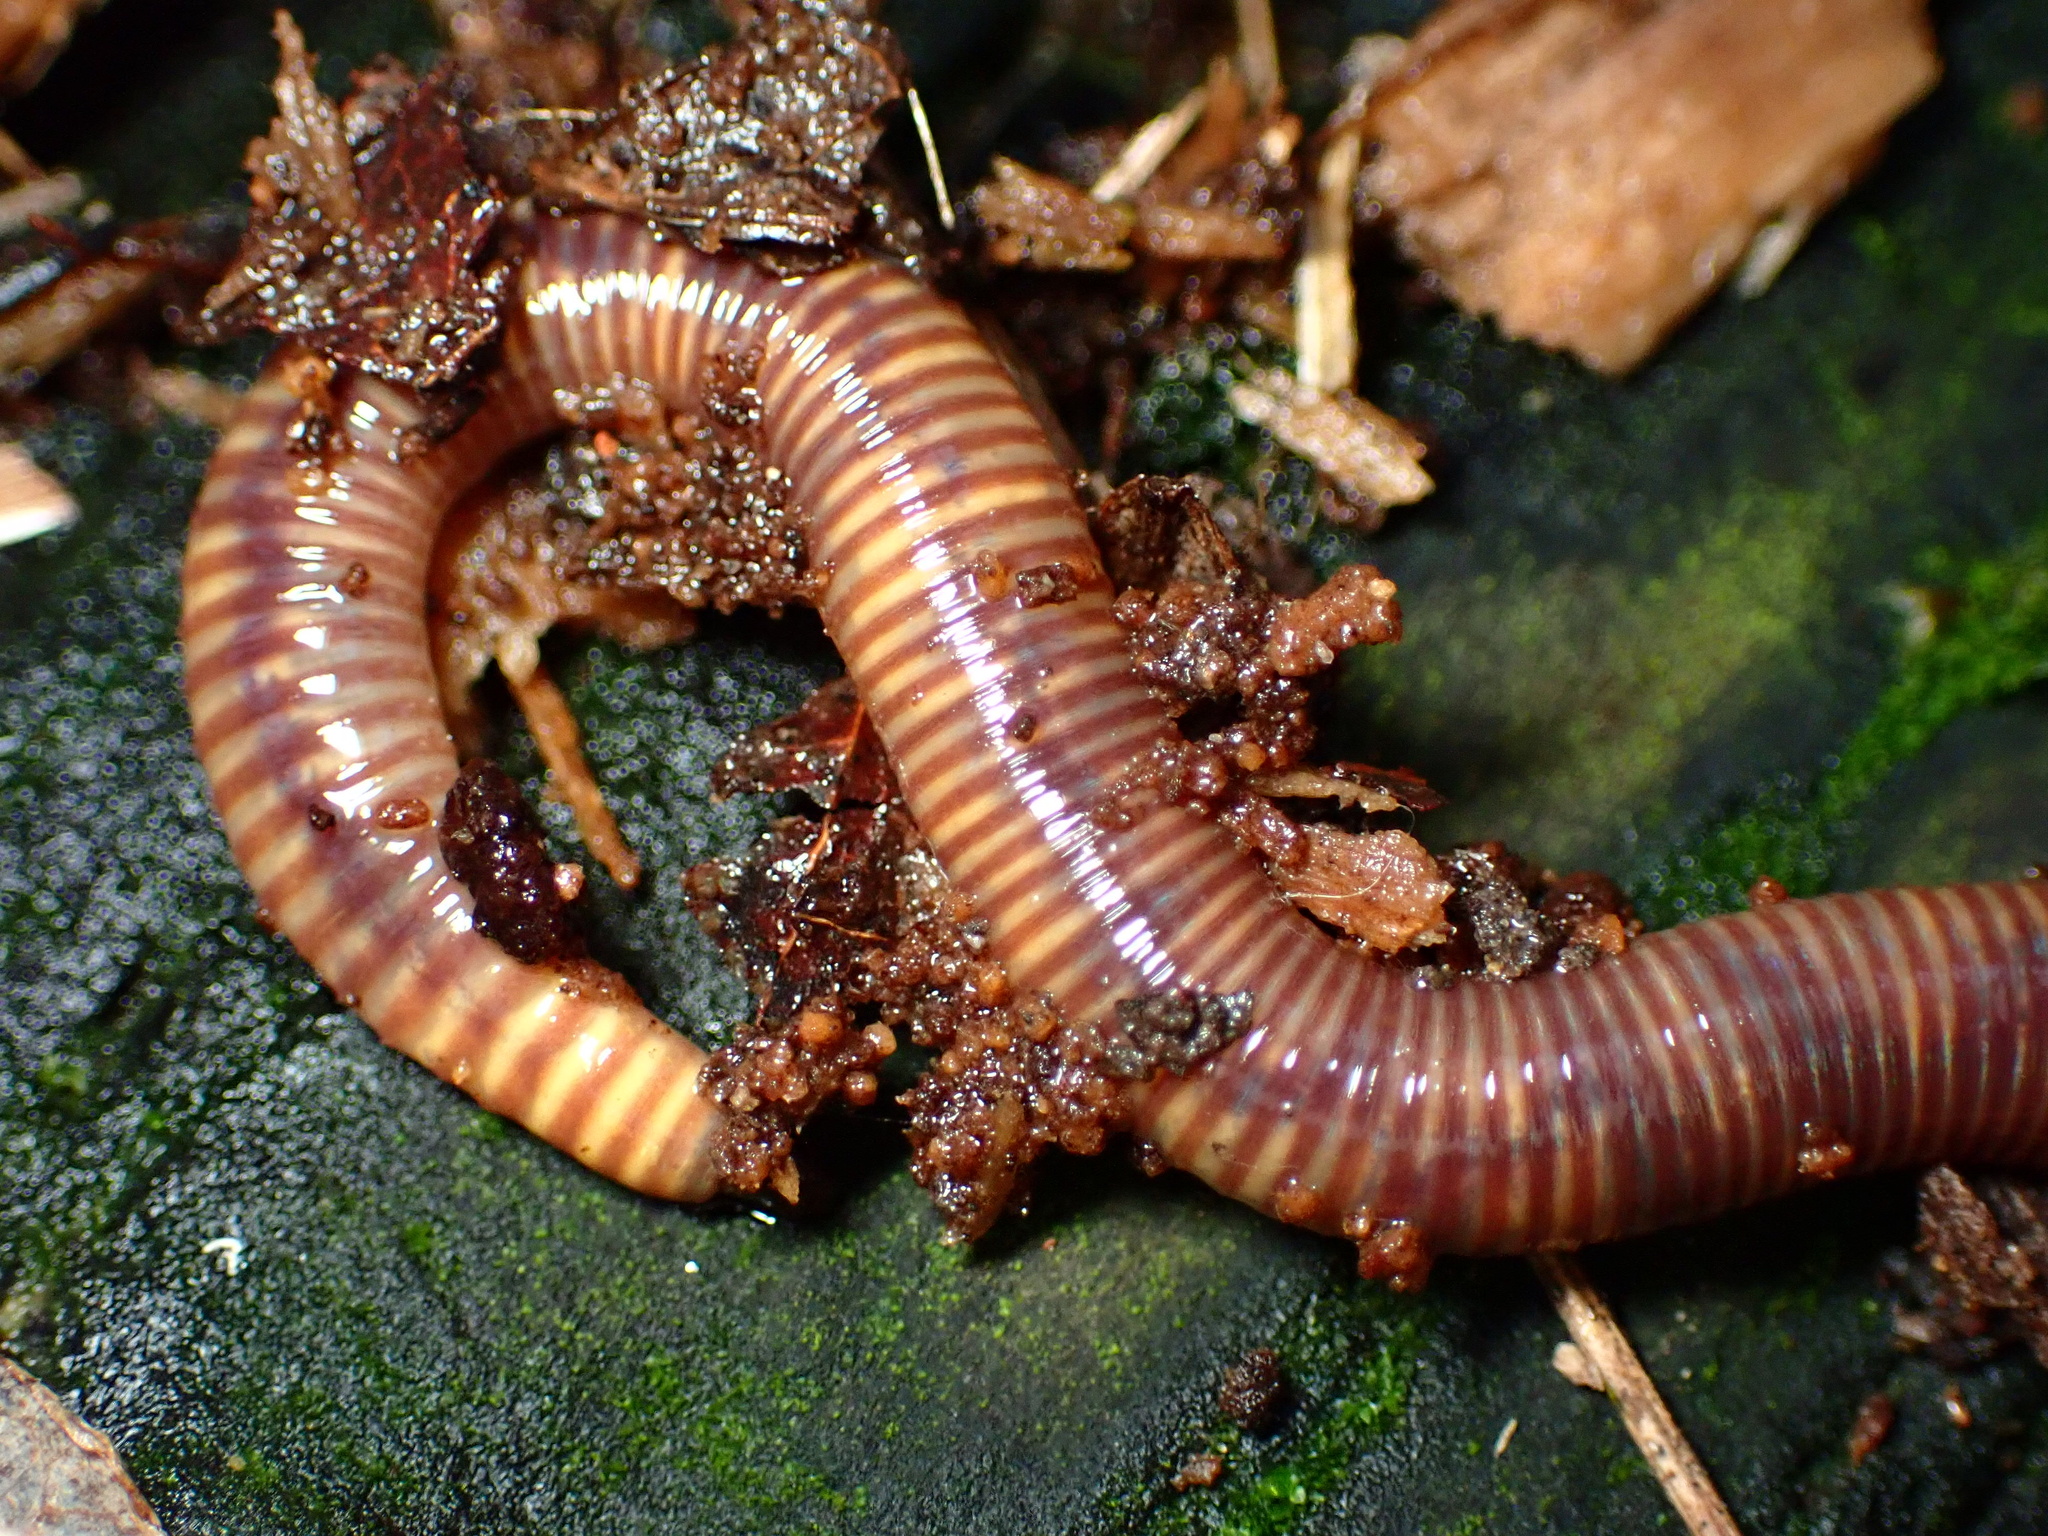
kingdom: Animalia
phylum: Annelida
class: Clitellata
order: Crassiclitellata
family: Lumbricidae
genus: Eisenia
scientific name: Eisenia fetida
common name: Red wiggler
